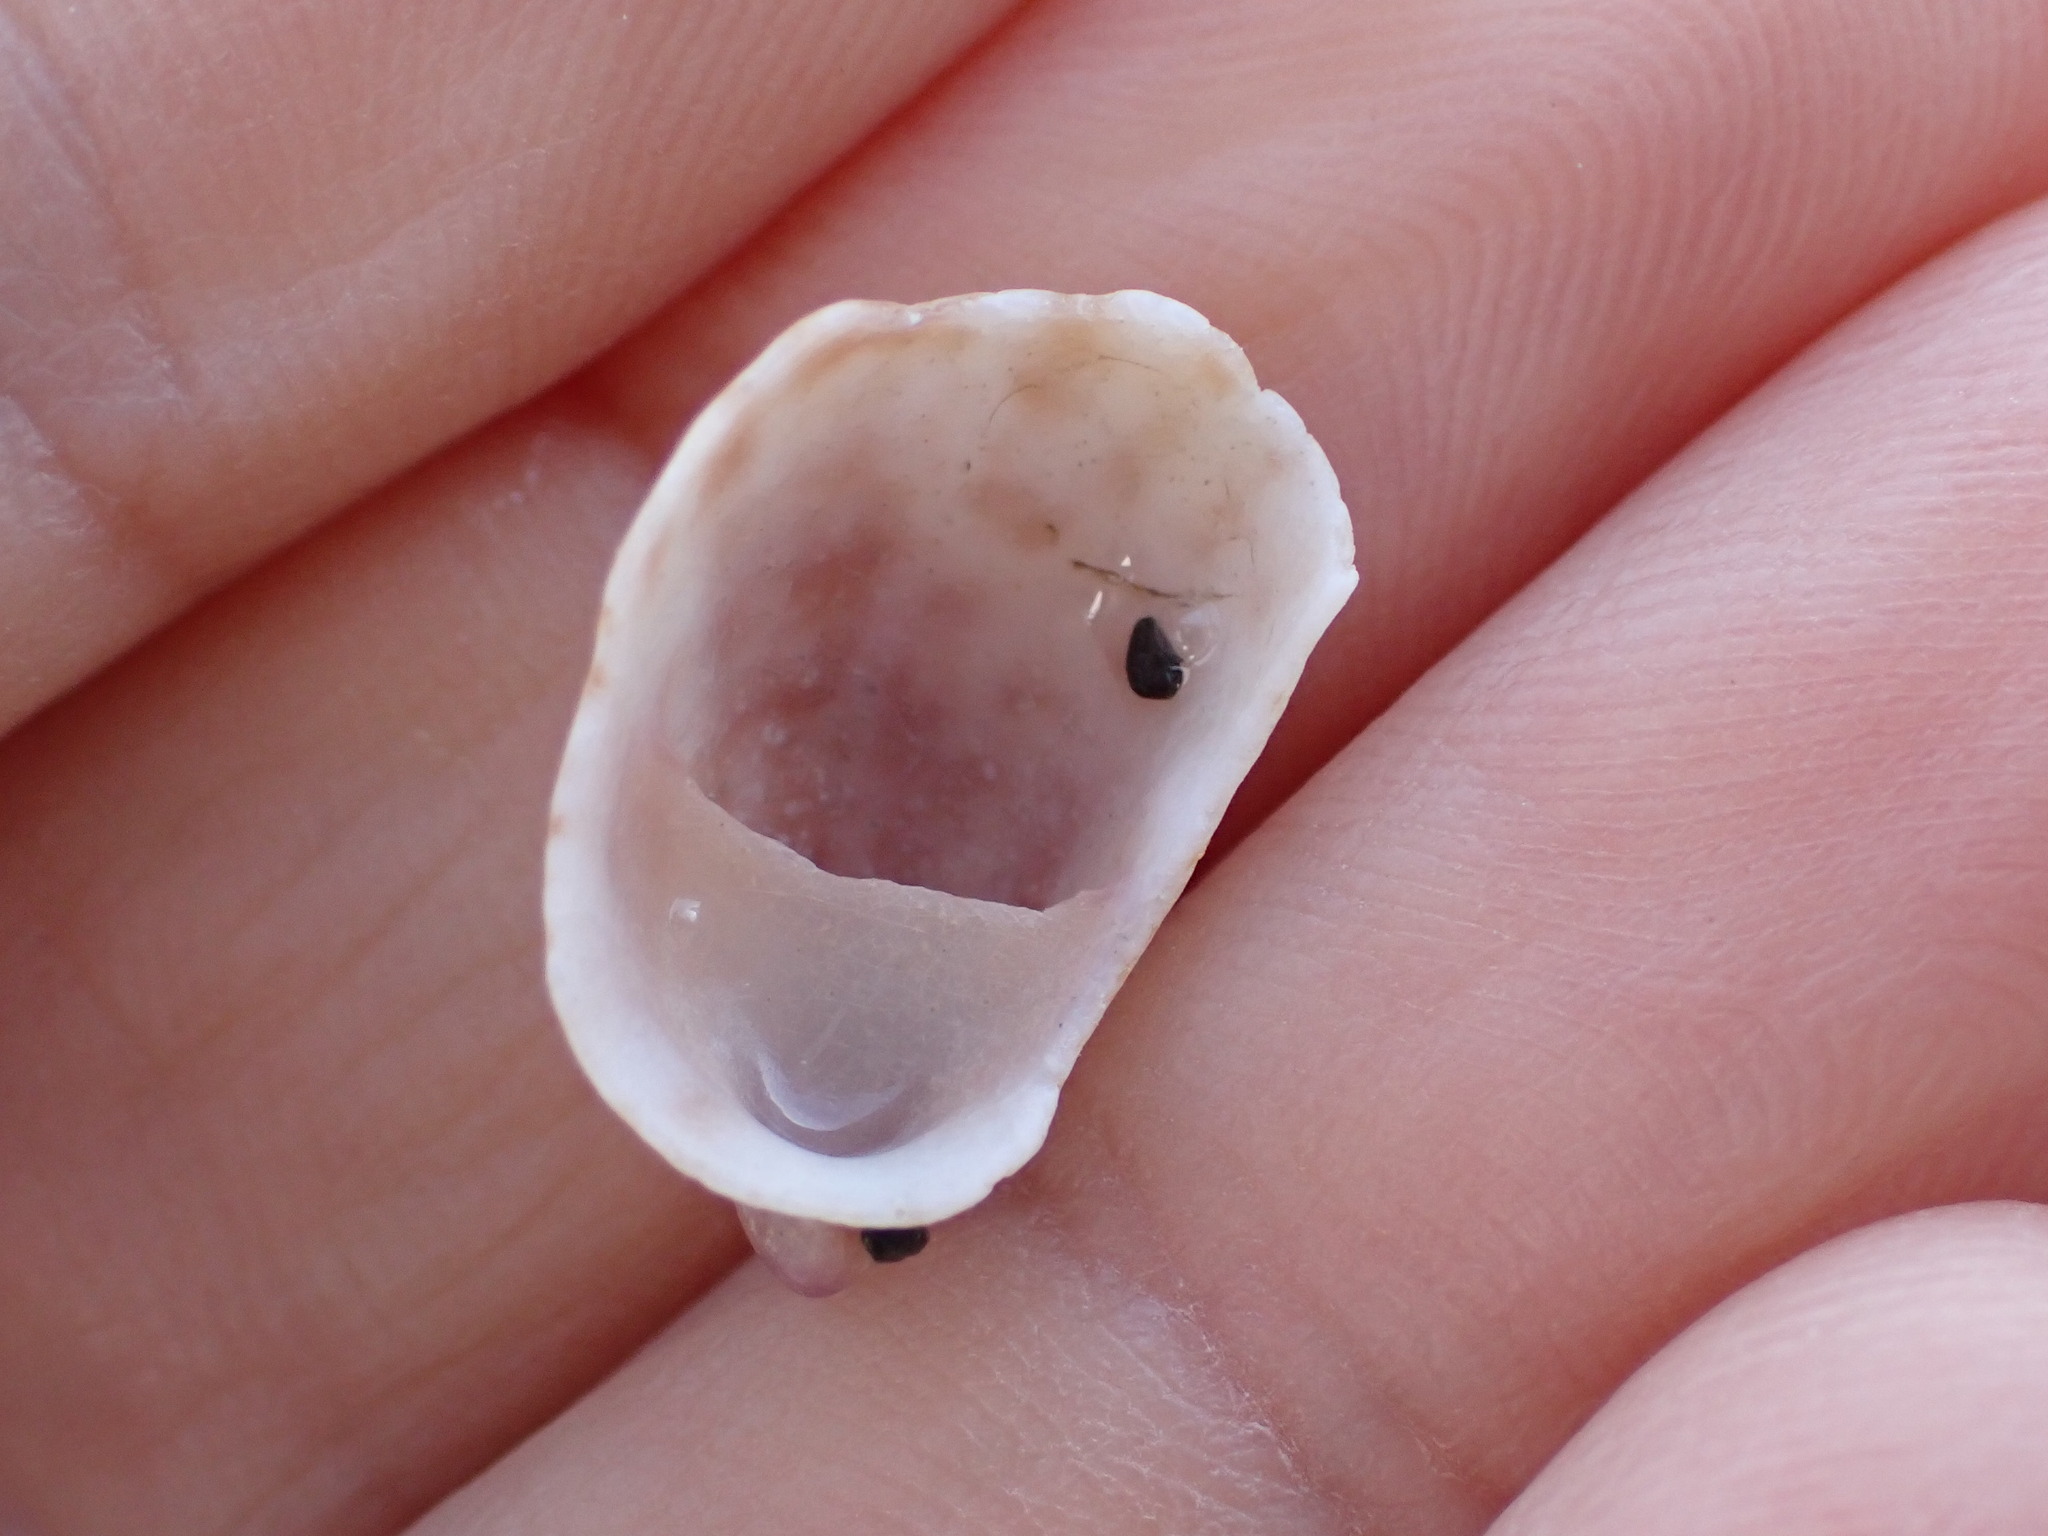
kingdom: Animalia
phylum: Mollusca
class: Gastropoda
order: Littorinimorpha
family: Calyptraeidae
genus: Maoricrypta
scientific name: Maoricrypta youngi
